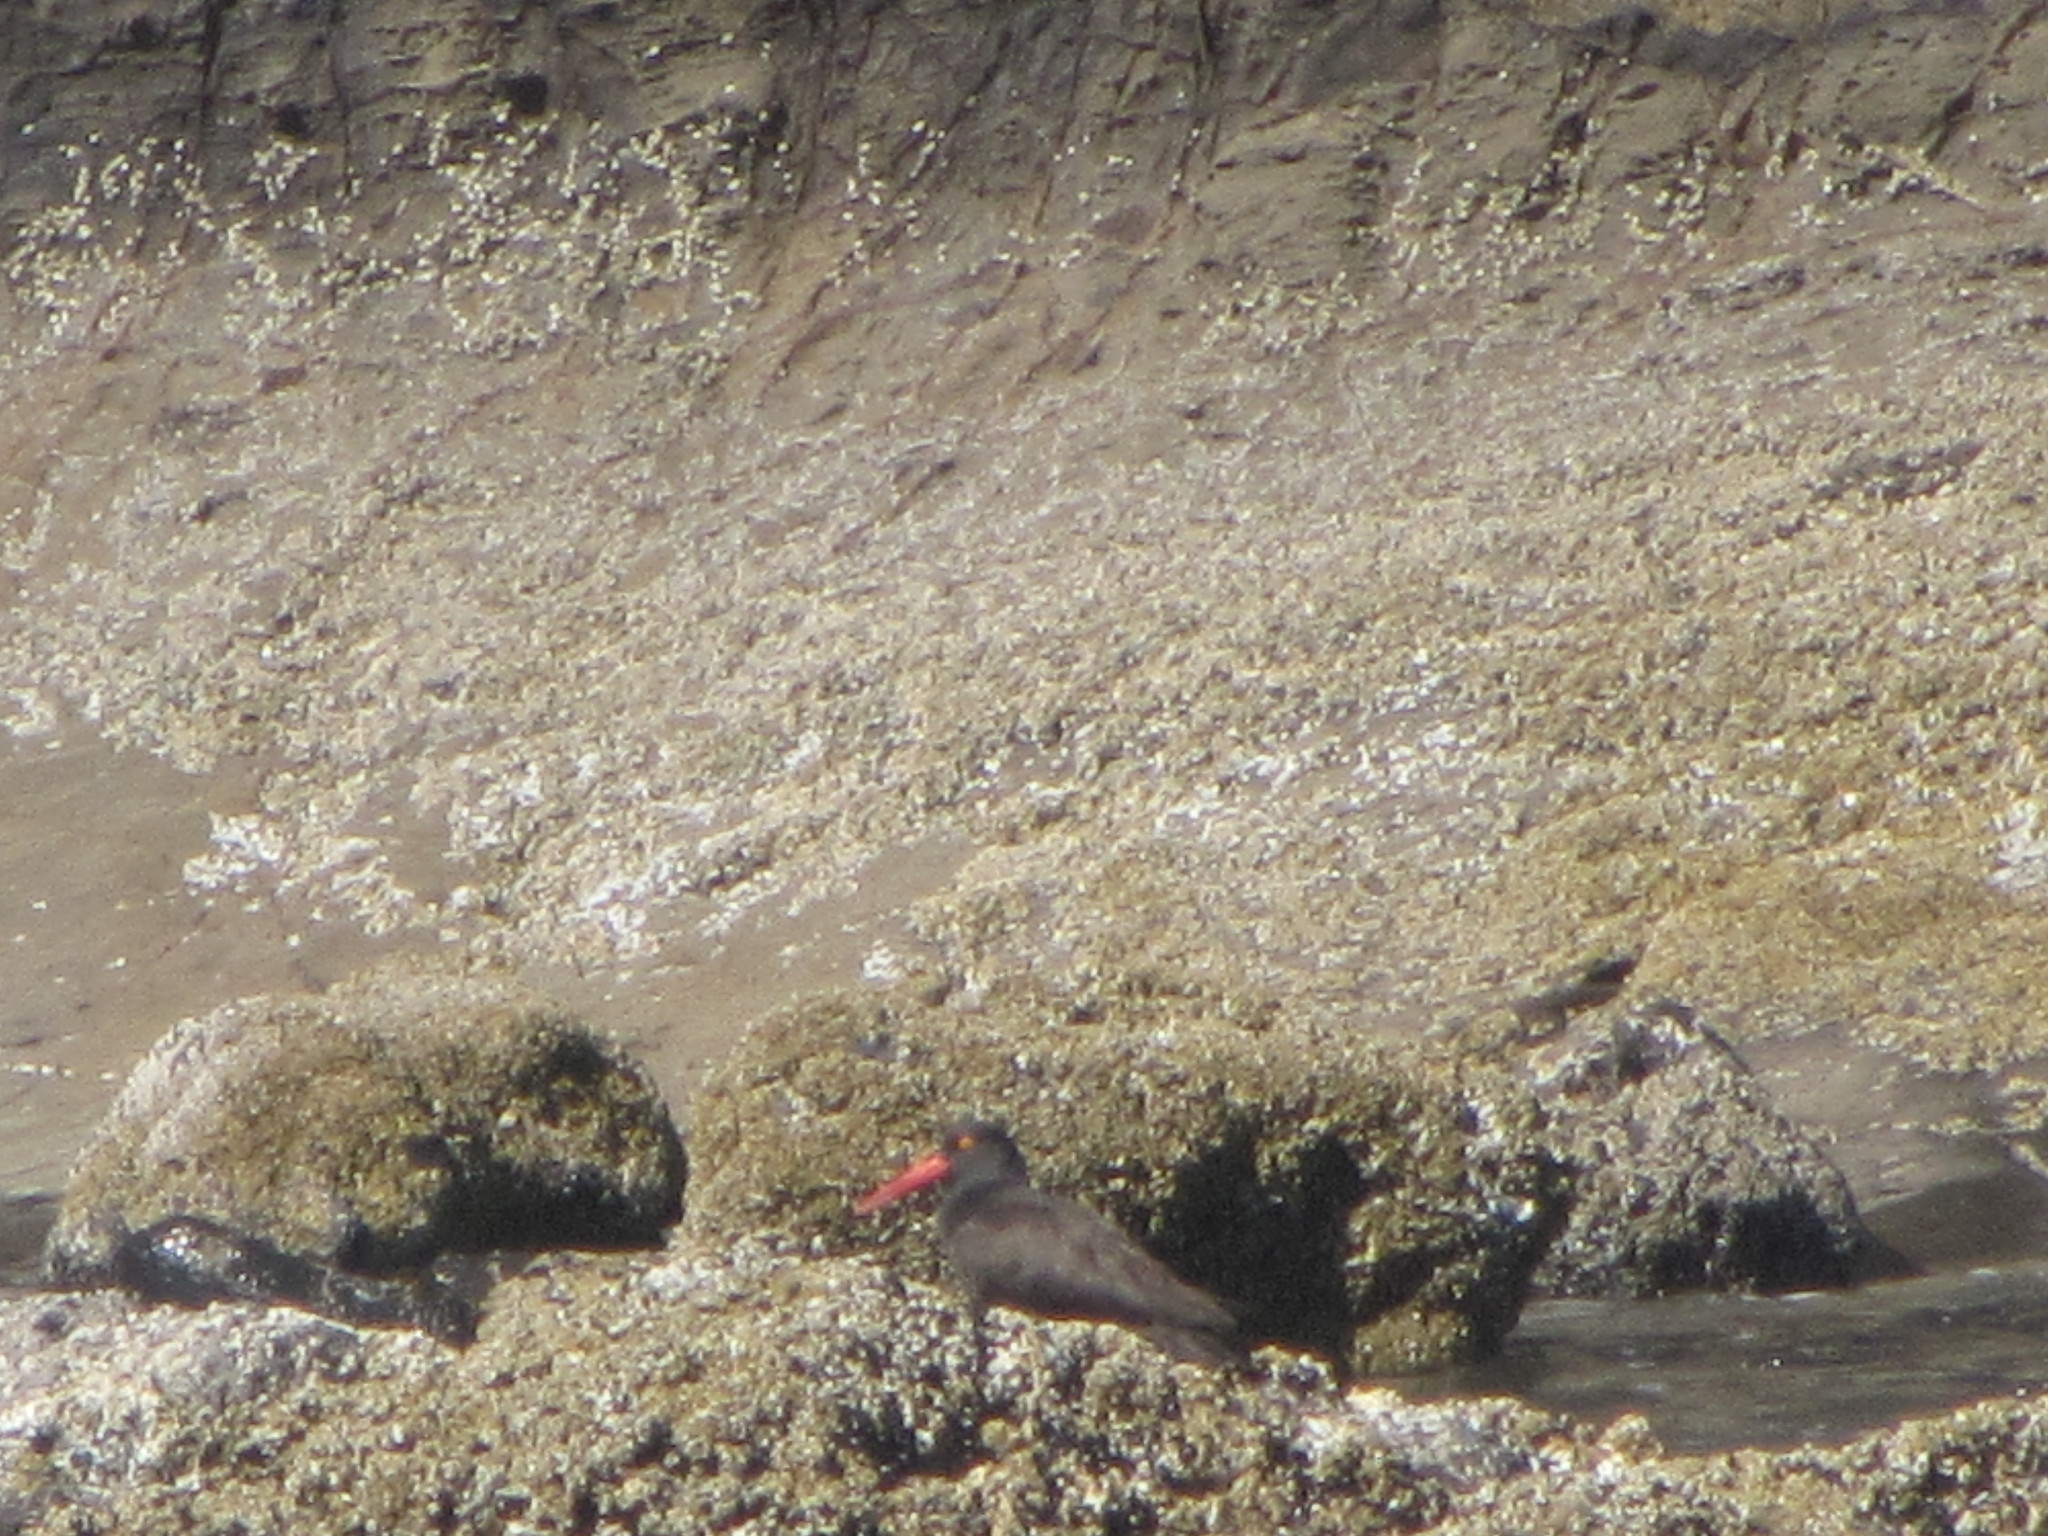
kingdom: Animalia
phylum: Chordata
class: Aves
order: Charadriiformes
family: Haematopodidae
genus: Haematopus
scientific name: Haematopus bachmani
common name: Black oystercatcher
